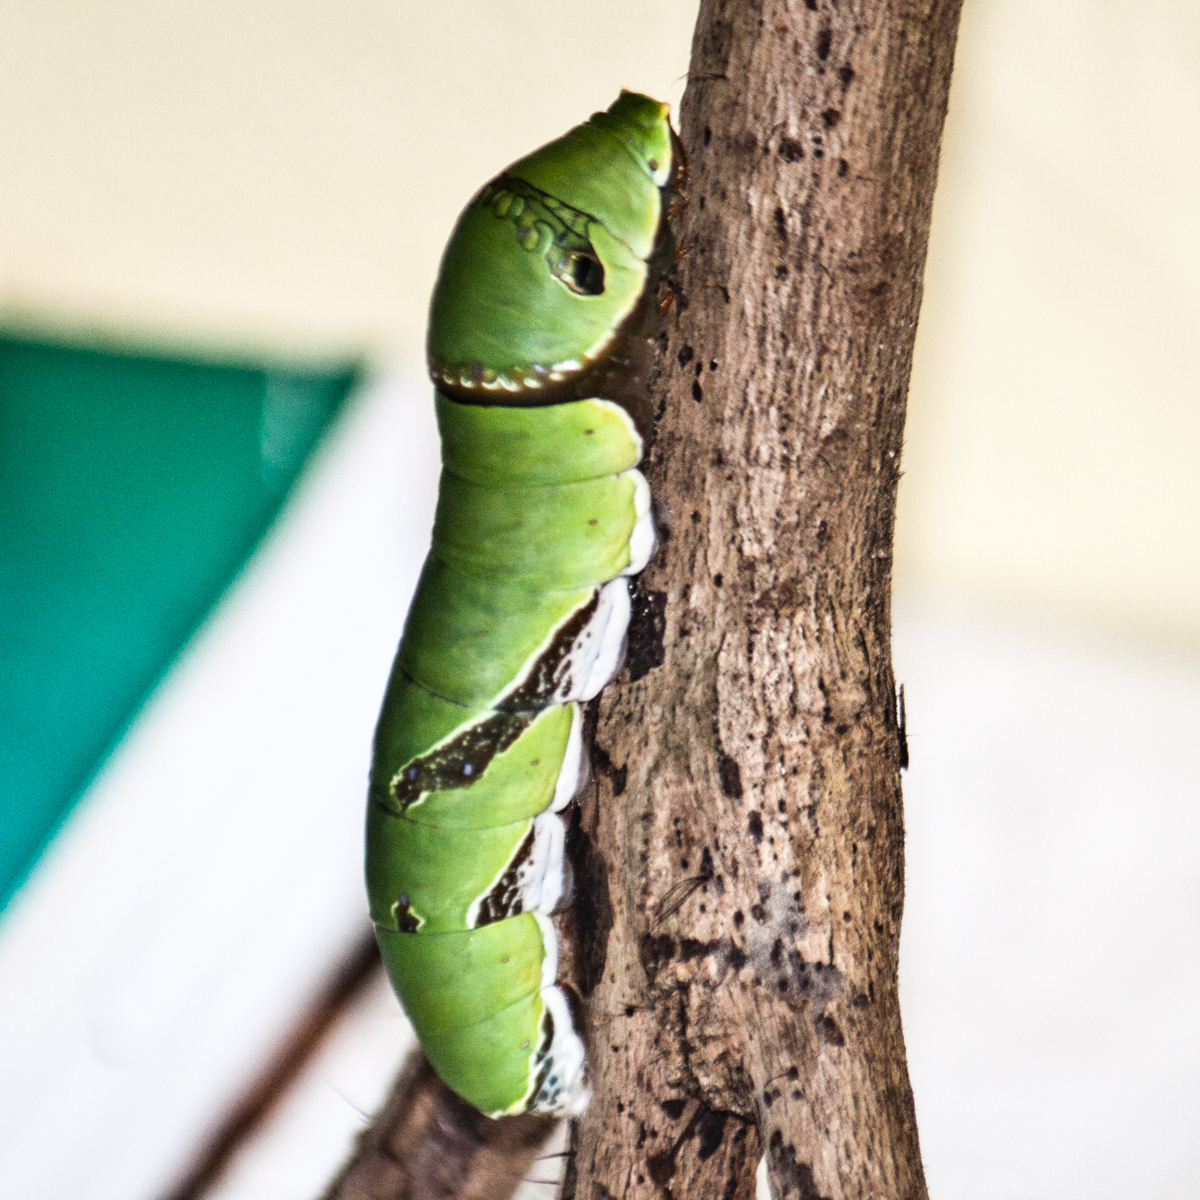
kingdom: Animalia
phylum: Arthropoda
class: Insecta
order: Lepidoptera
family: Papilionidae
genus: Papilio
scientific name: Papilio polytes
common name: Common mormon
